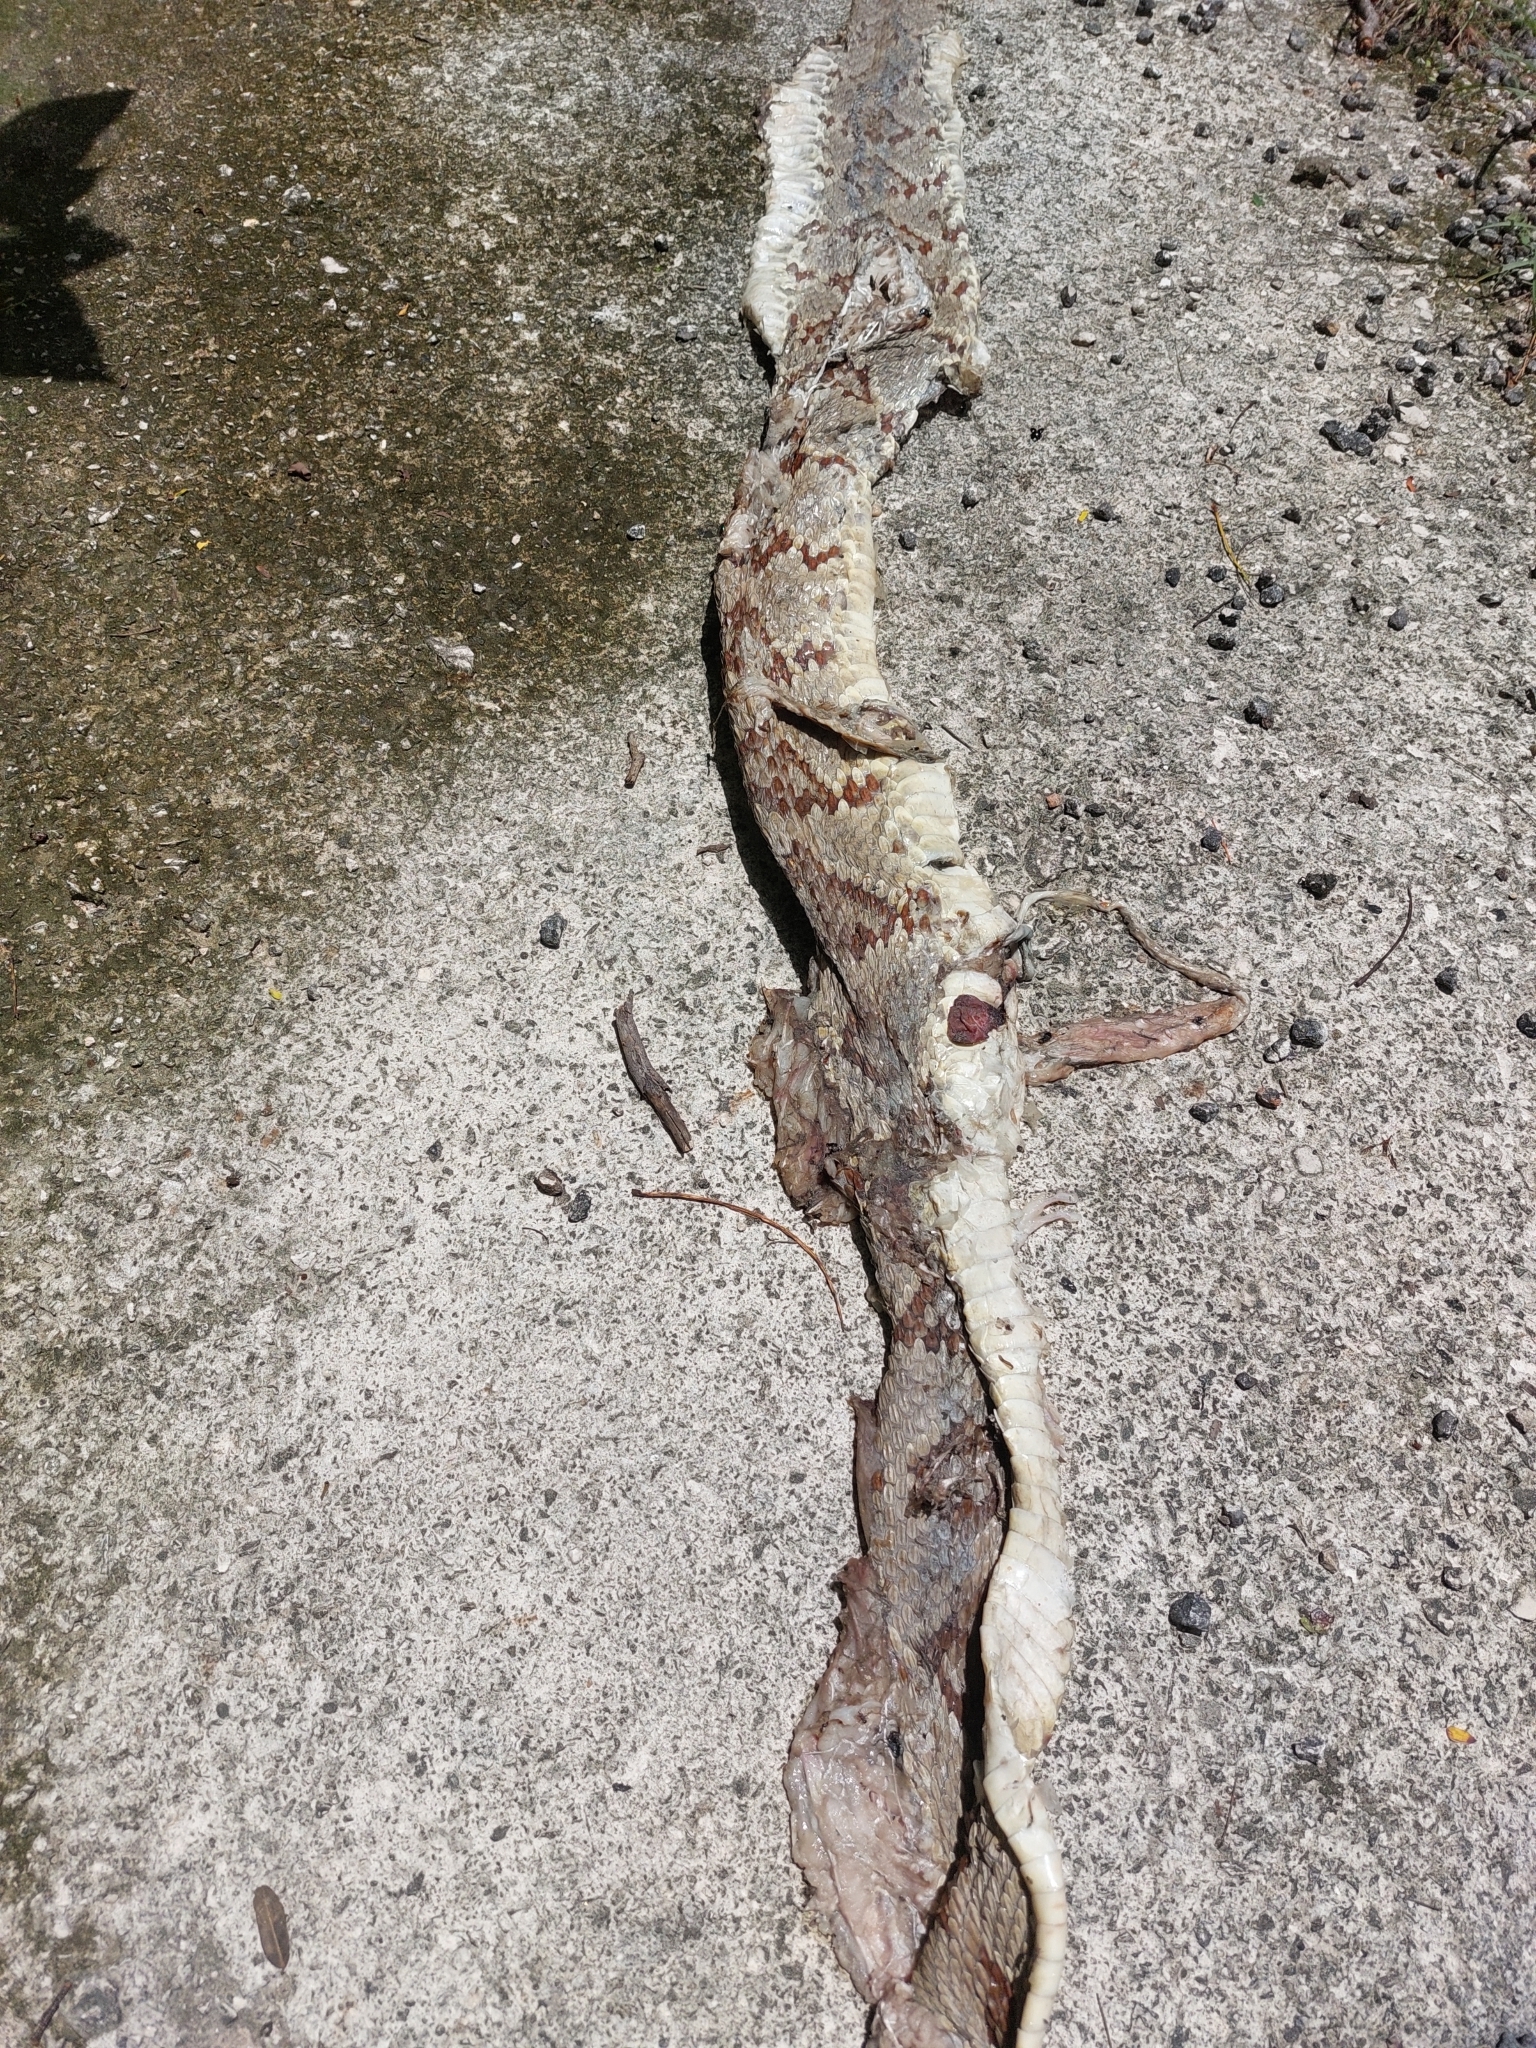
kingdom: Animalia
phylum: Chordata
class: Squamata
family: Viperidae
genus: Crotalus
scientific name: Crotalus tzabcan
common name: Yucatan neotropical rattlesnake
